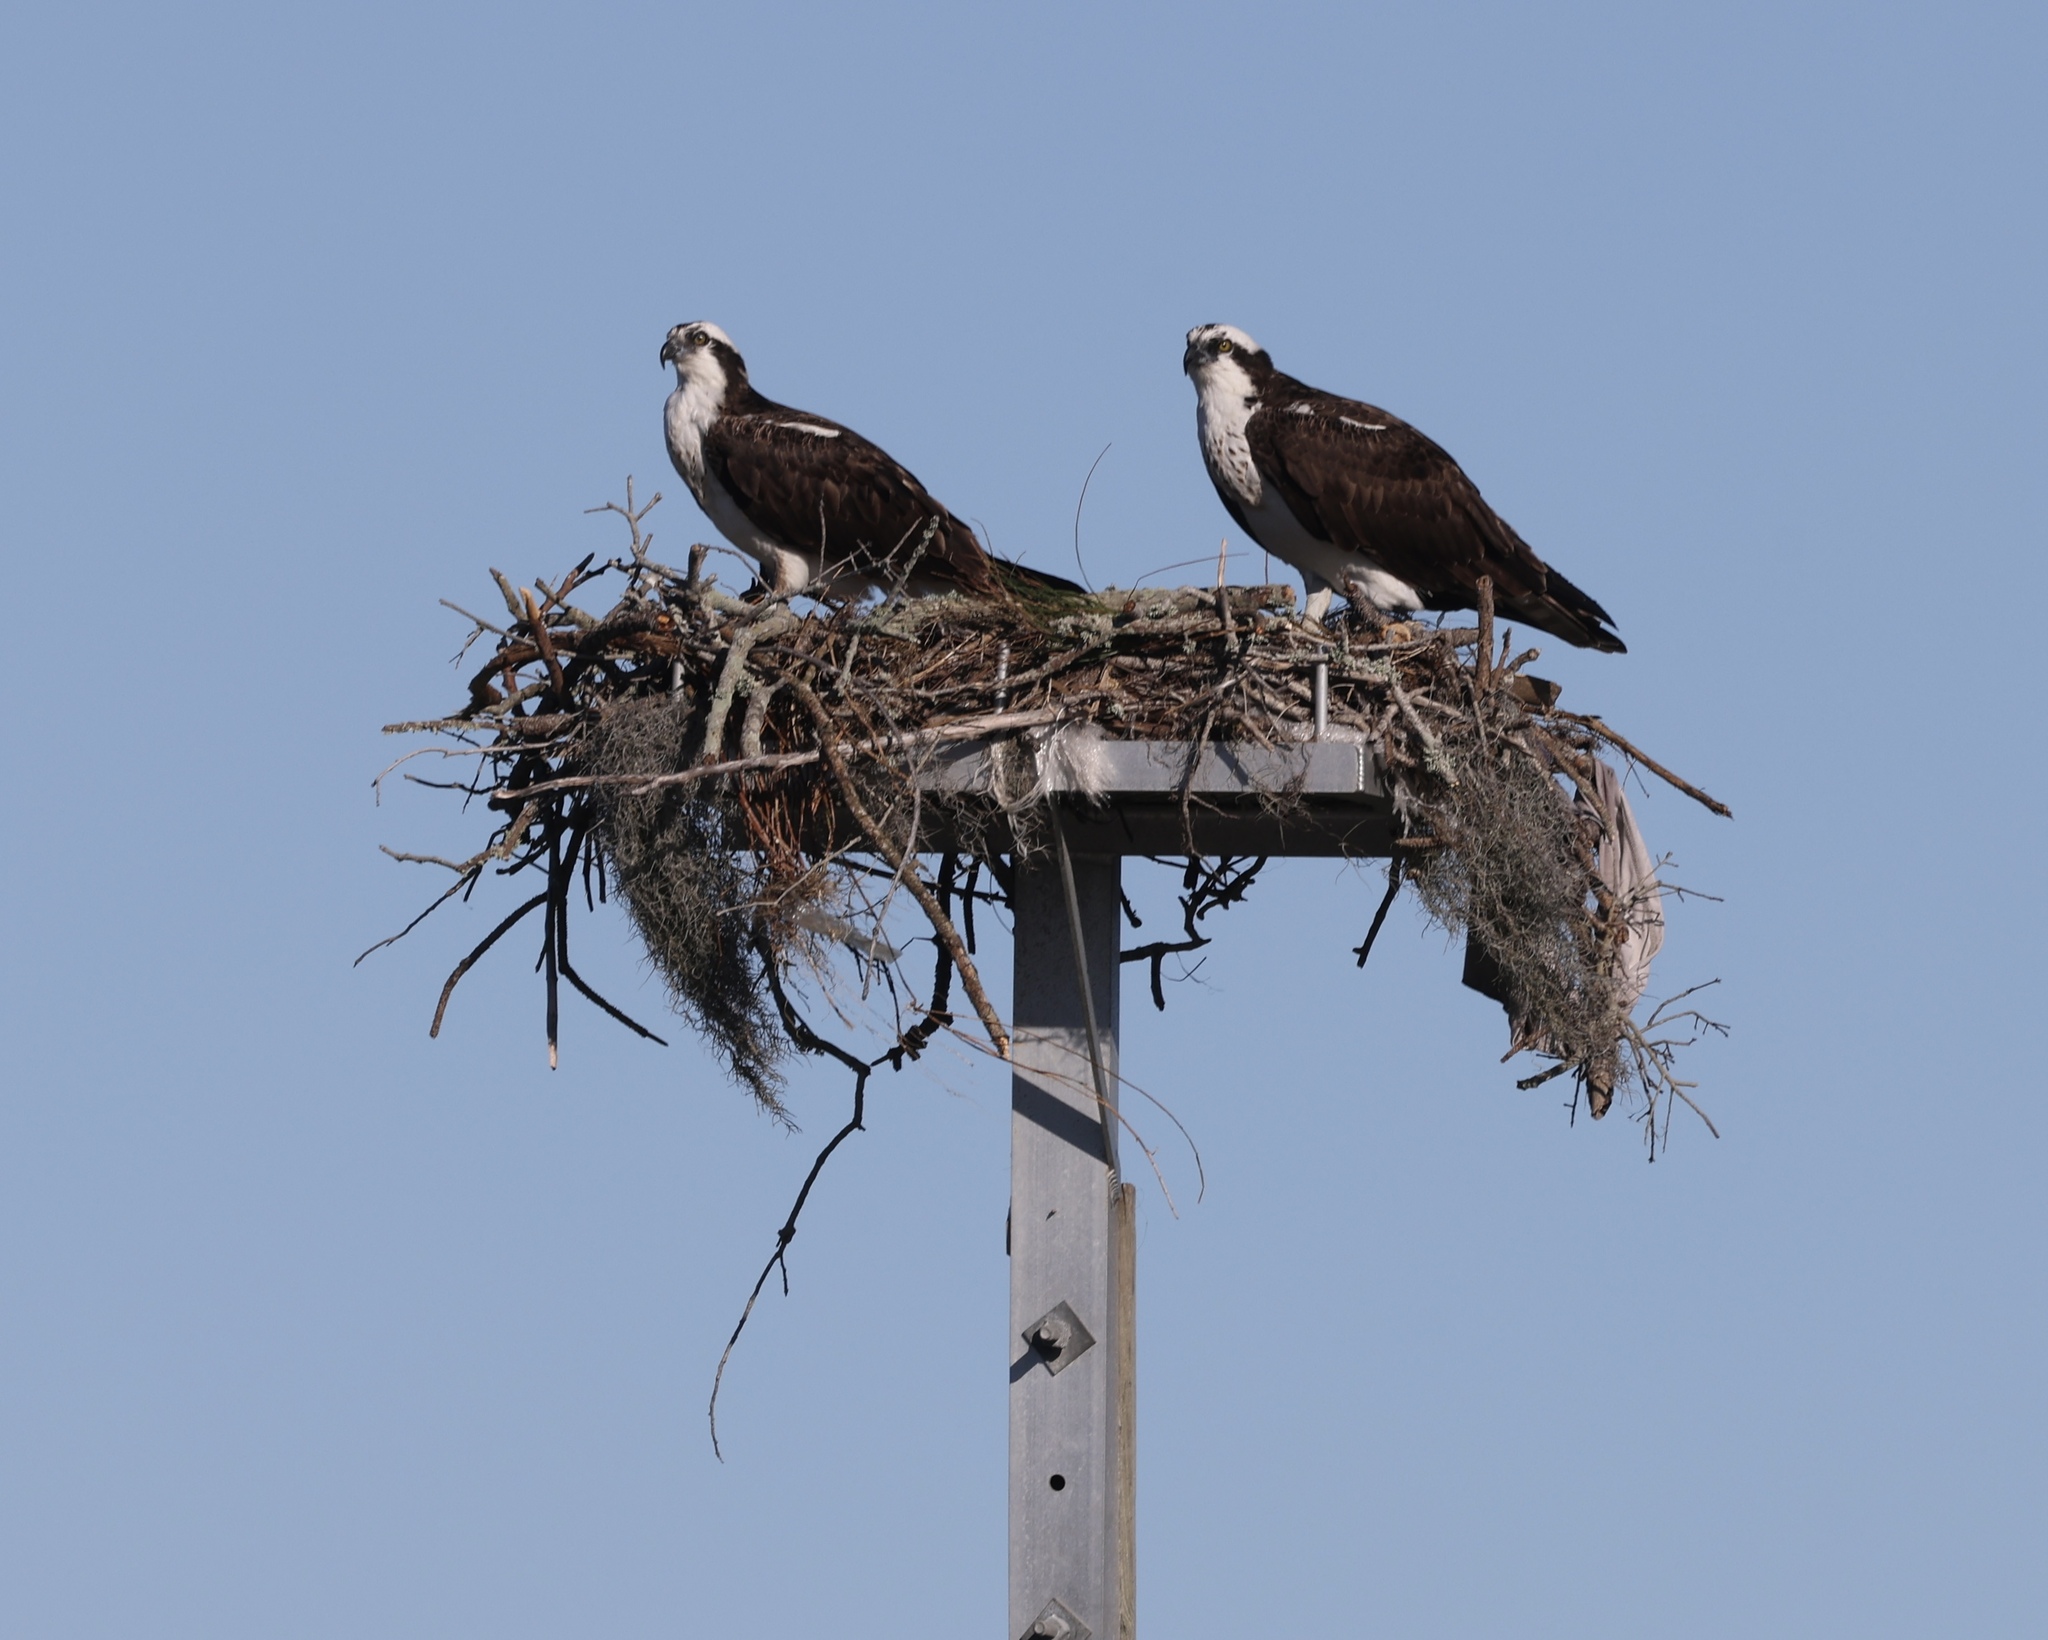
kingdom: Animalia
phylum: Chordata
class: Aves
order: Accipitriformes
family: Pandionidae
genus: Pandion
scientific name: Pandion haliaetus
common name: Osprey
